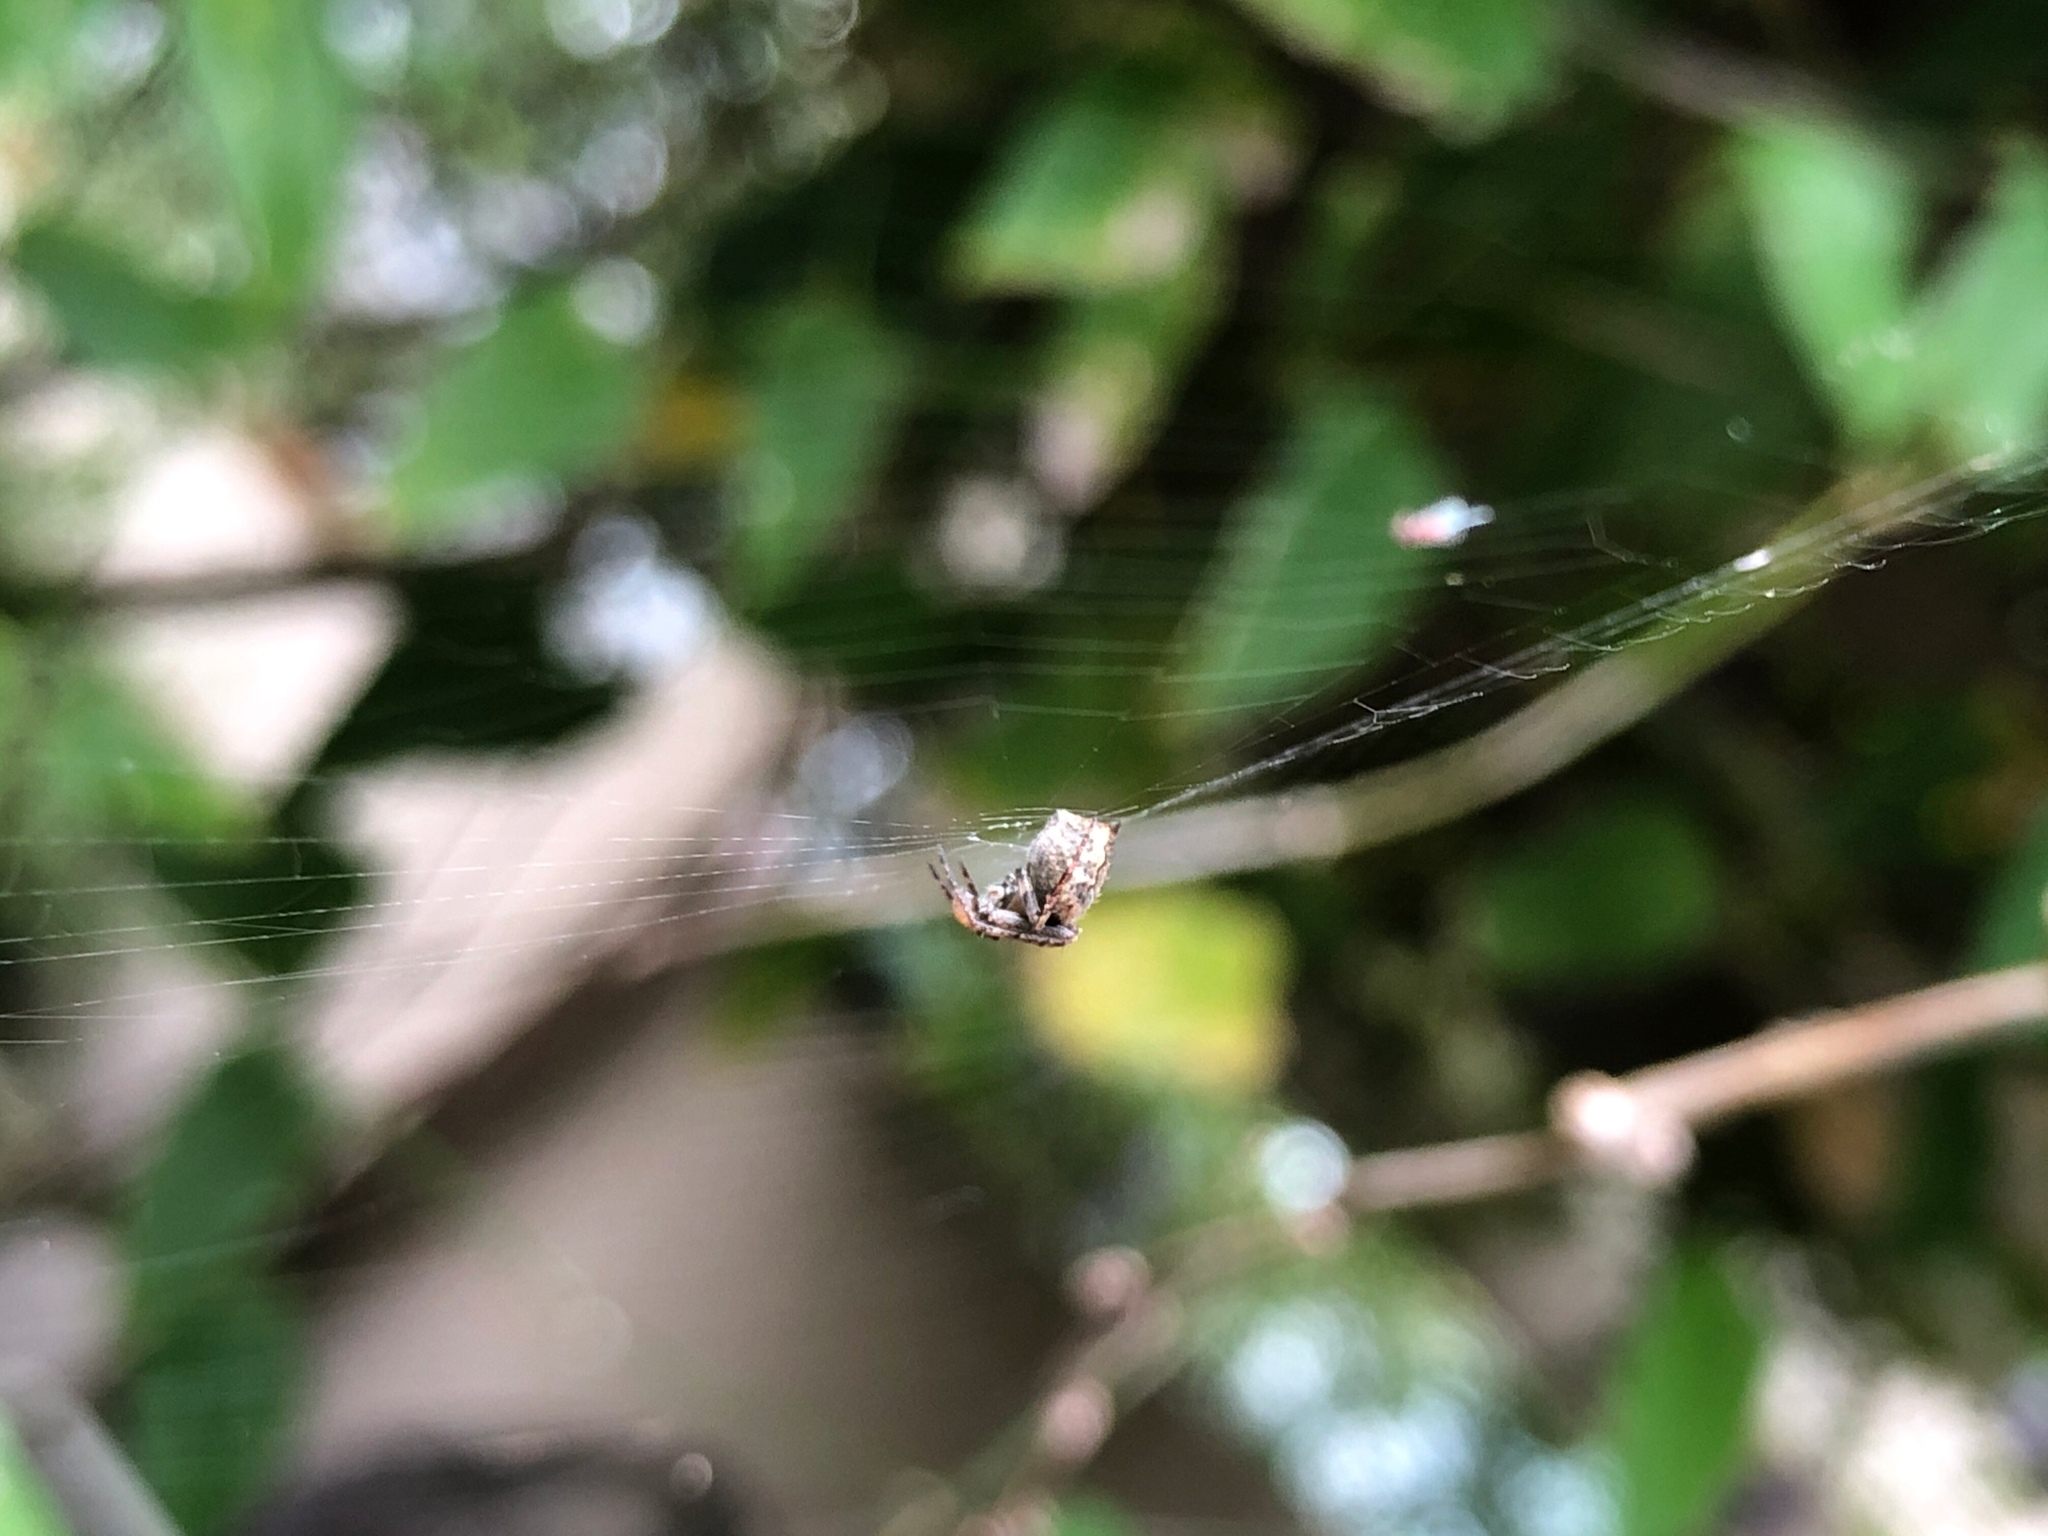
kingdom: Animalia
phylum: Arthropoda
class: Arachnida
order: Araneae
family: Araneidae
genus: Neoscona
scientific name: Neoscona arabesca
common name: Orb weavers
